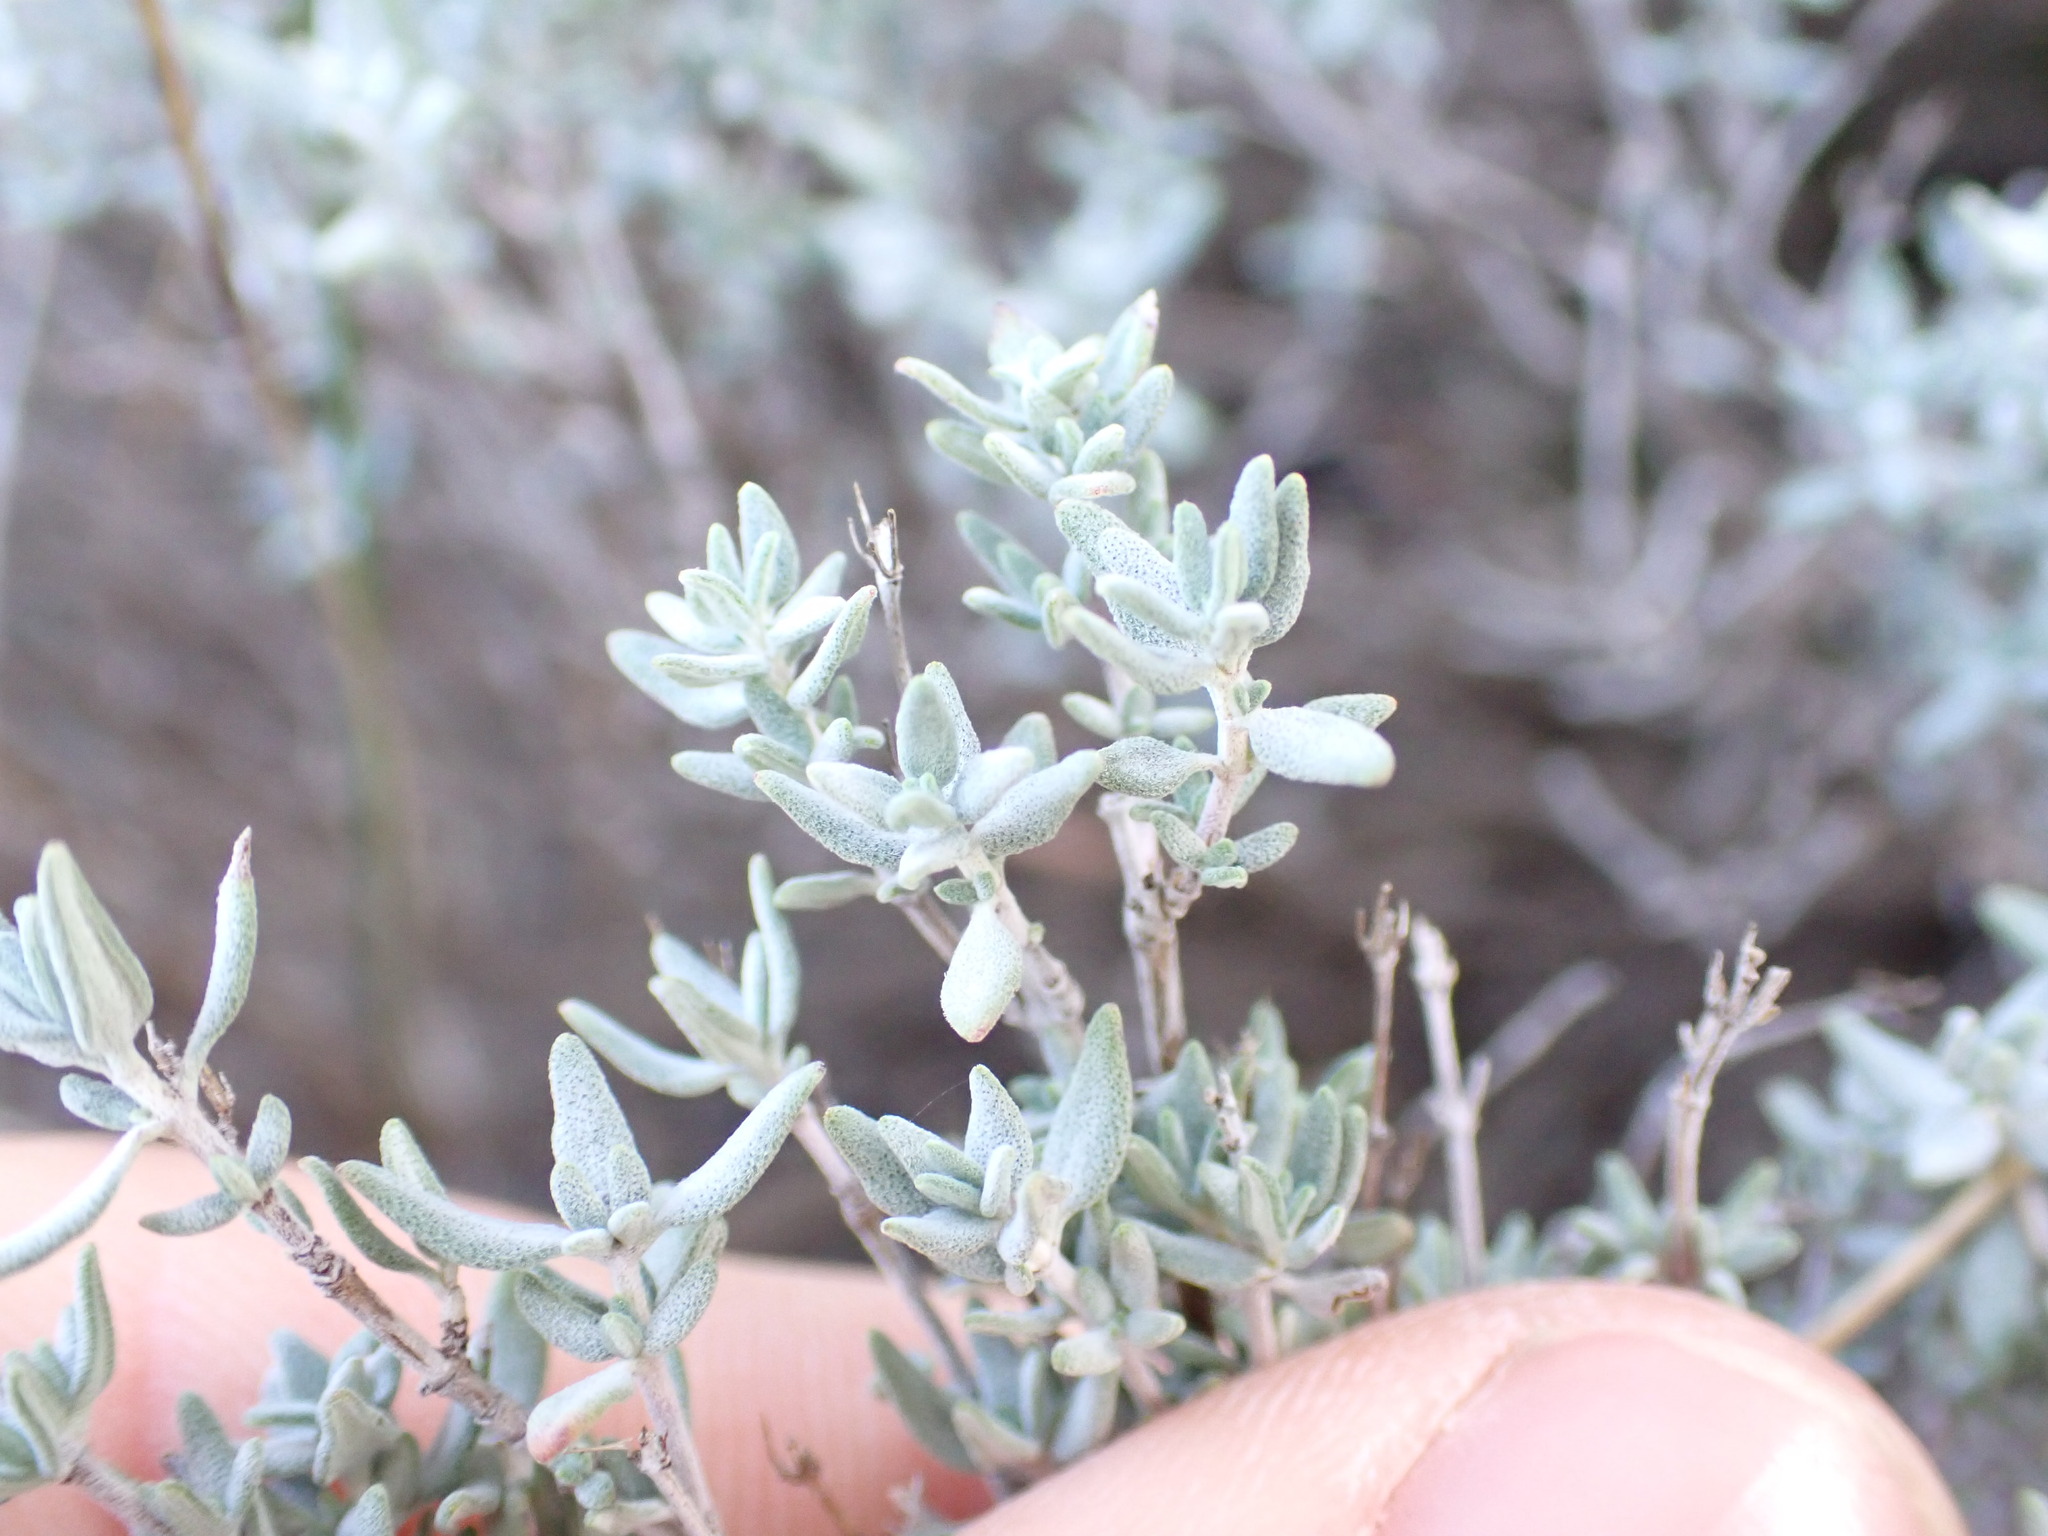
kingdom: Plantae
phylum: Tracheophyta
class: Magnoliopsida
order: Lamiales
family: Lamiaceae
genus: Thymus
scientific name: Thymus vulgaris
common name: Garden thyme
